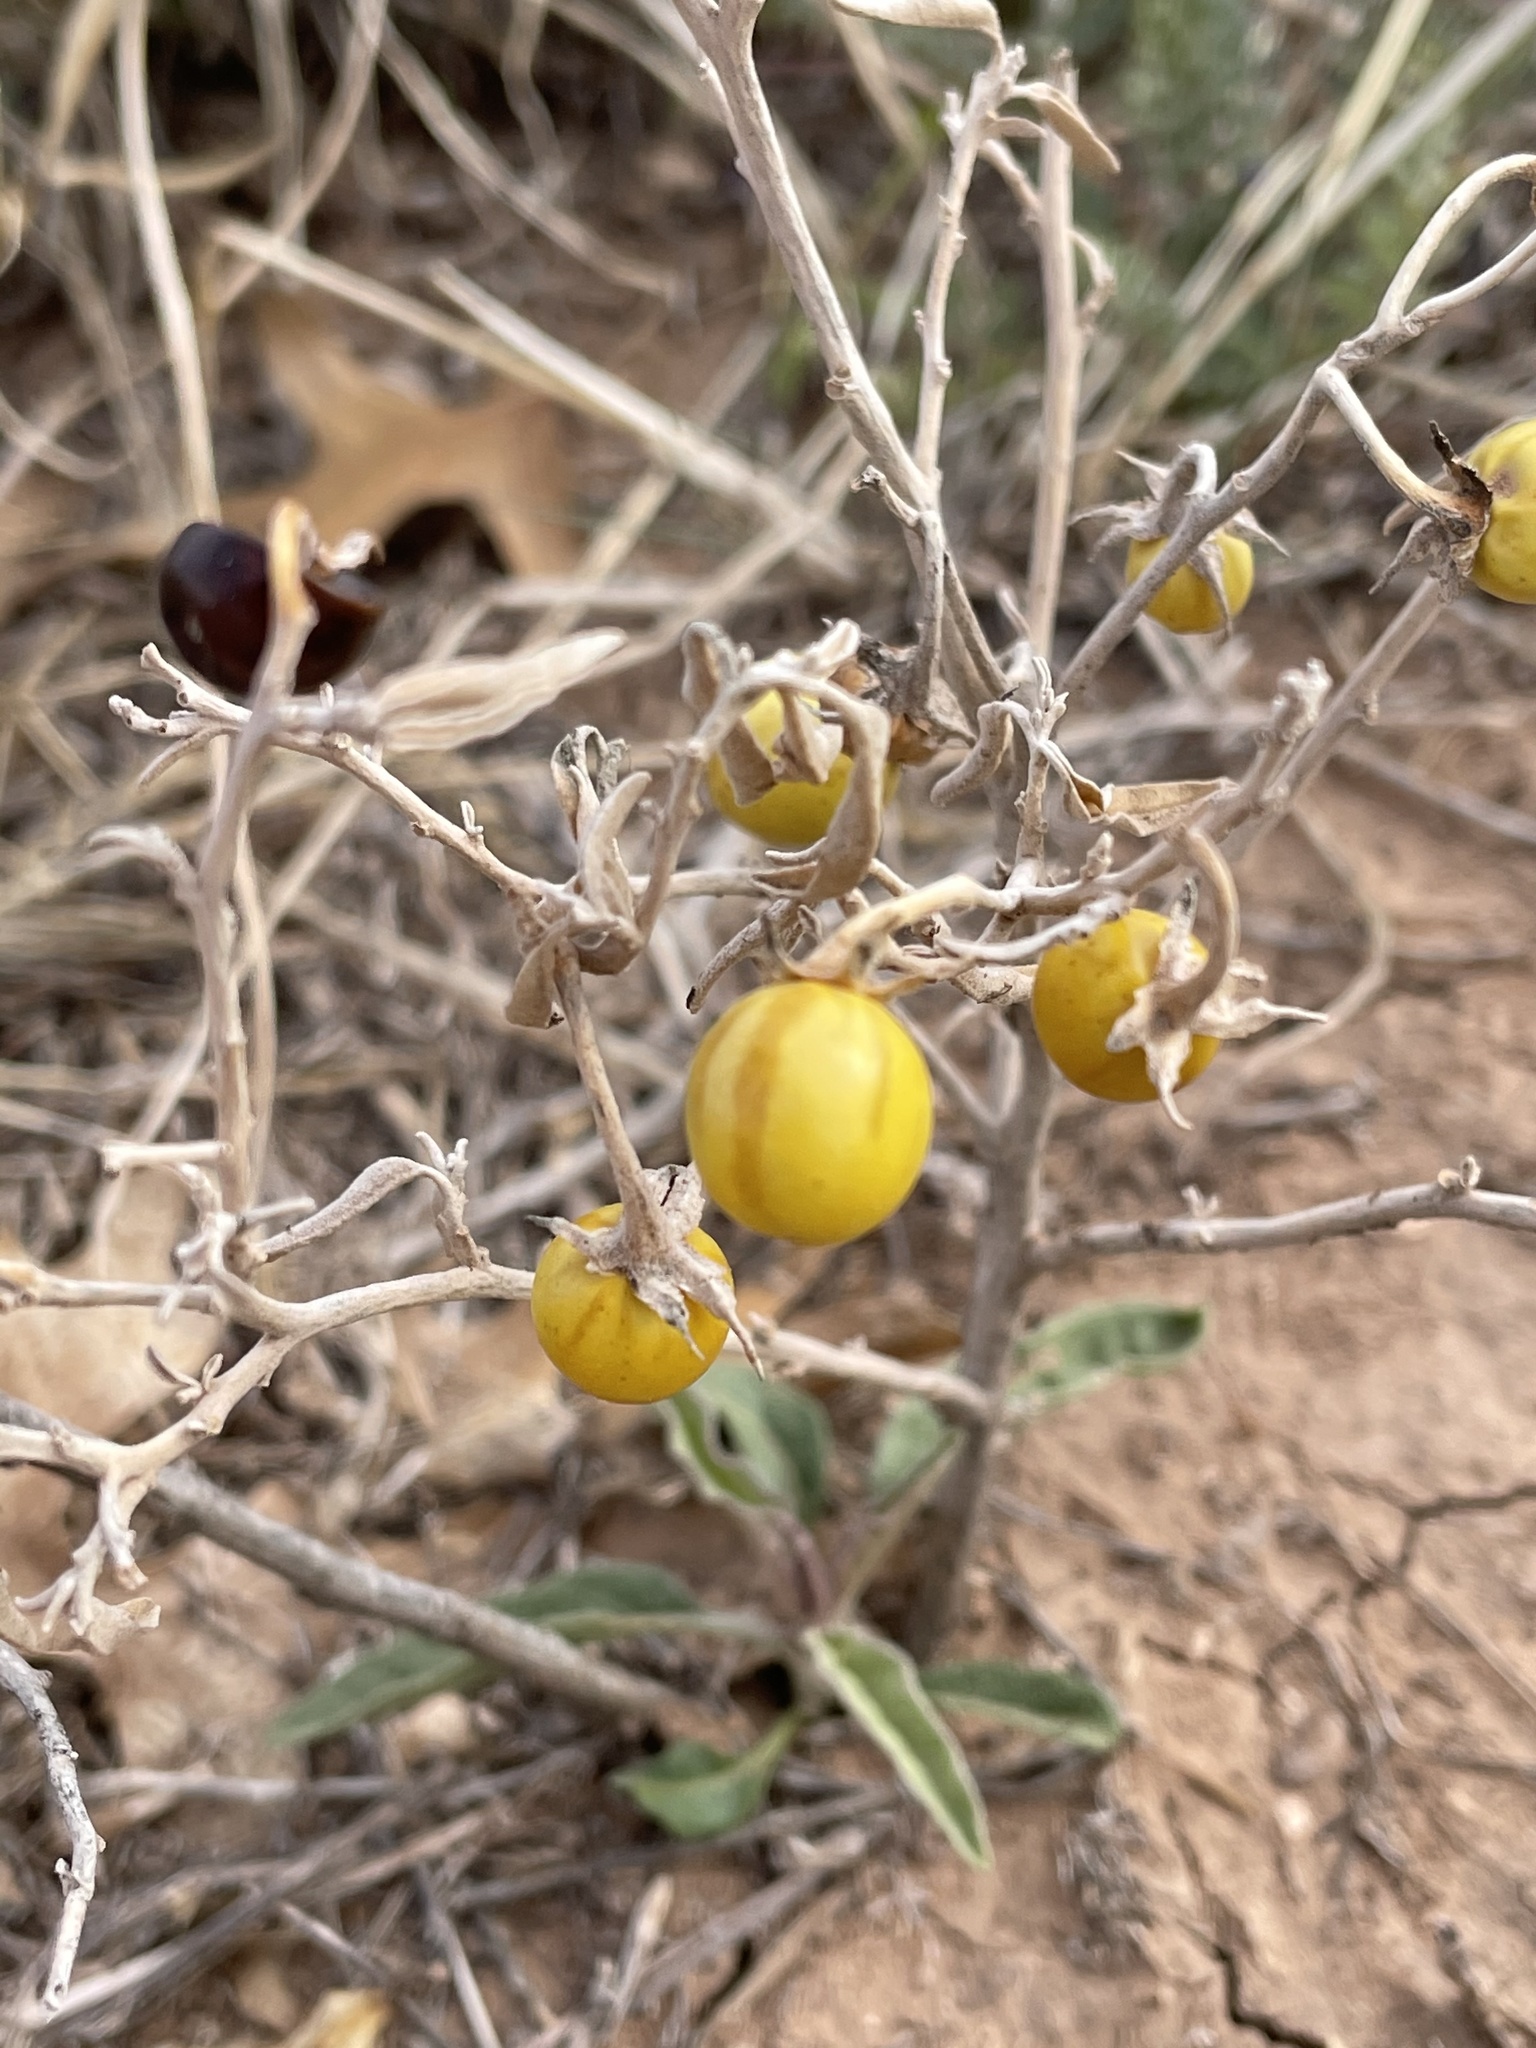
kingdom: Plantae
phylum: Tracheophyta
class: Magnoliopsida
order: Solanales
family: Solanaceae
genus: Solanum
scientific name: Solanum elaeagnifolium
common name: Silverleaf nightshade
